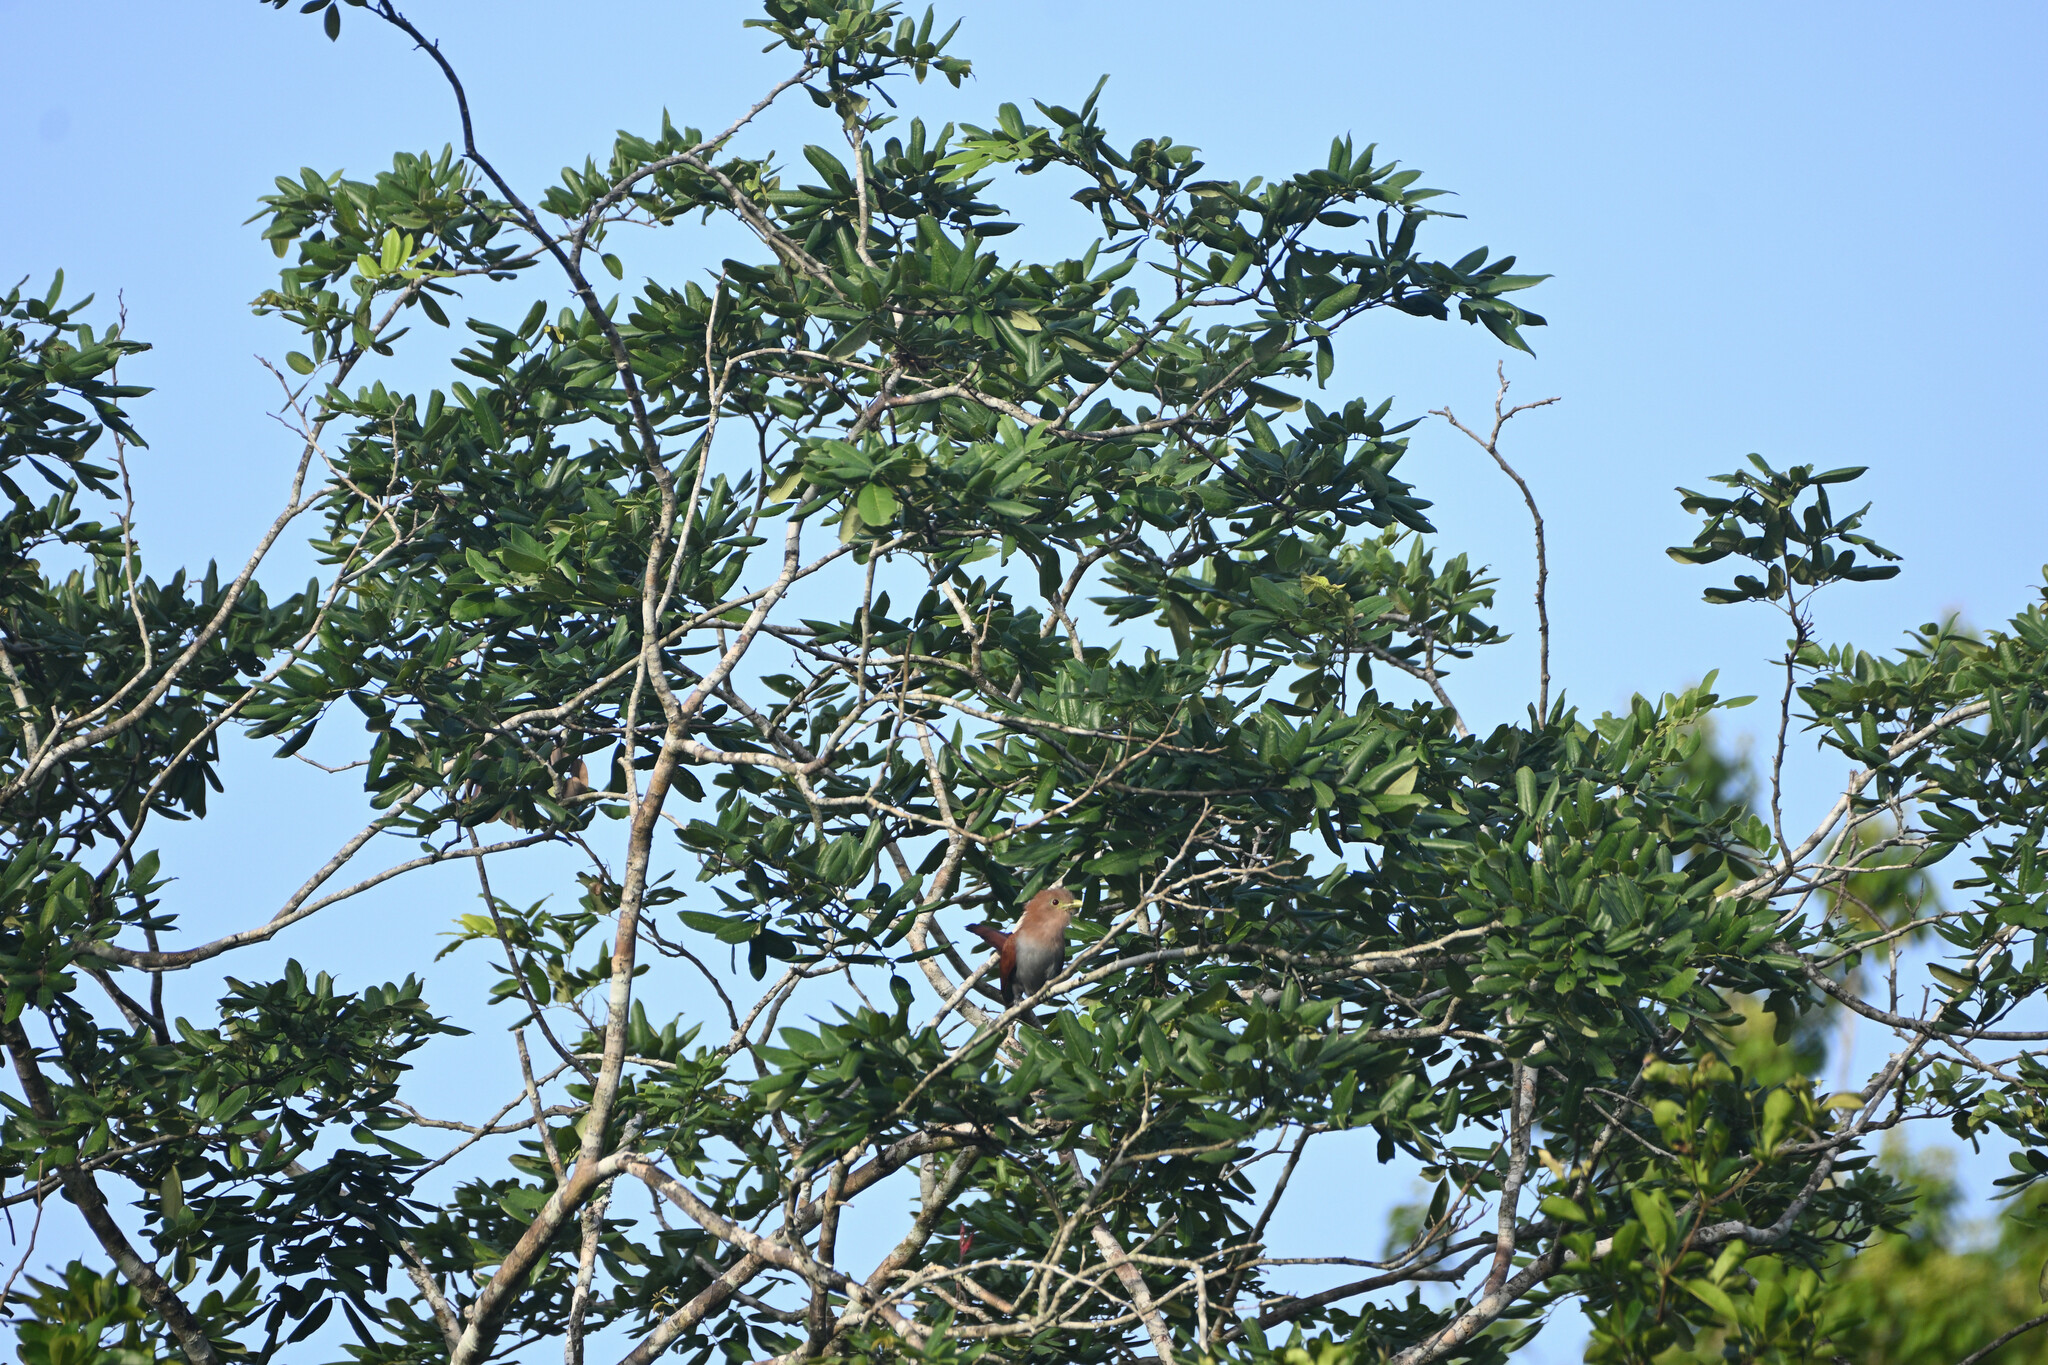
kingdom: Animalia
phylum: Chordata
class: Aves
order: Cuculiformes
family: Cuculidae
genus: Piaya
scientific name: Piaya cayana
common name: Squirrel cuckoo
